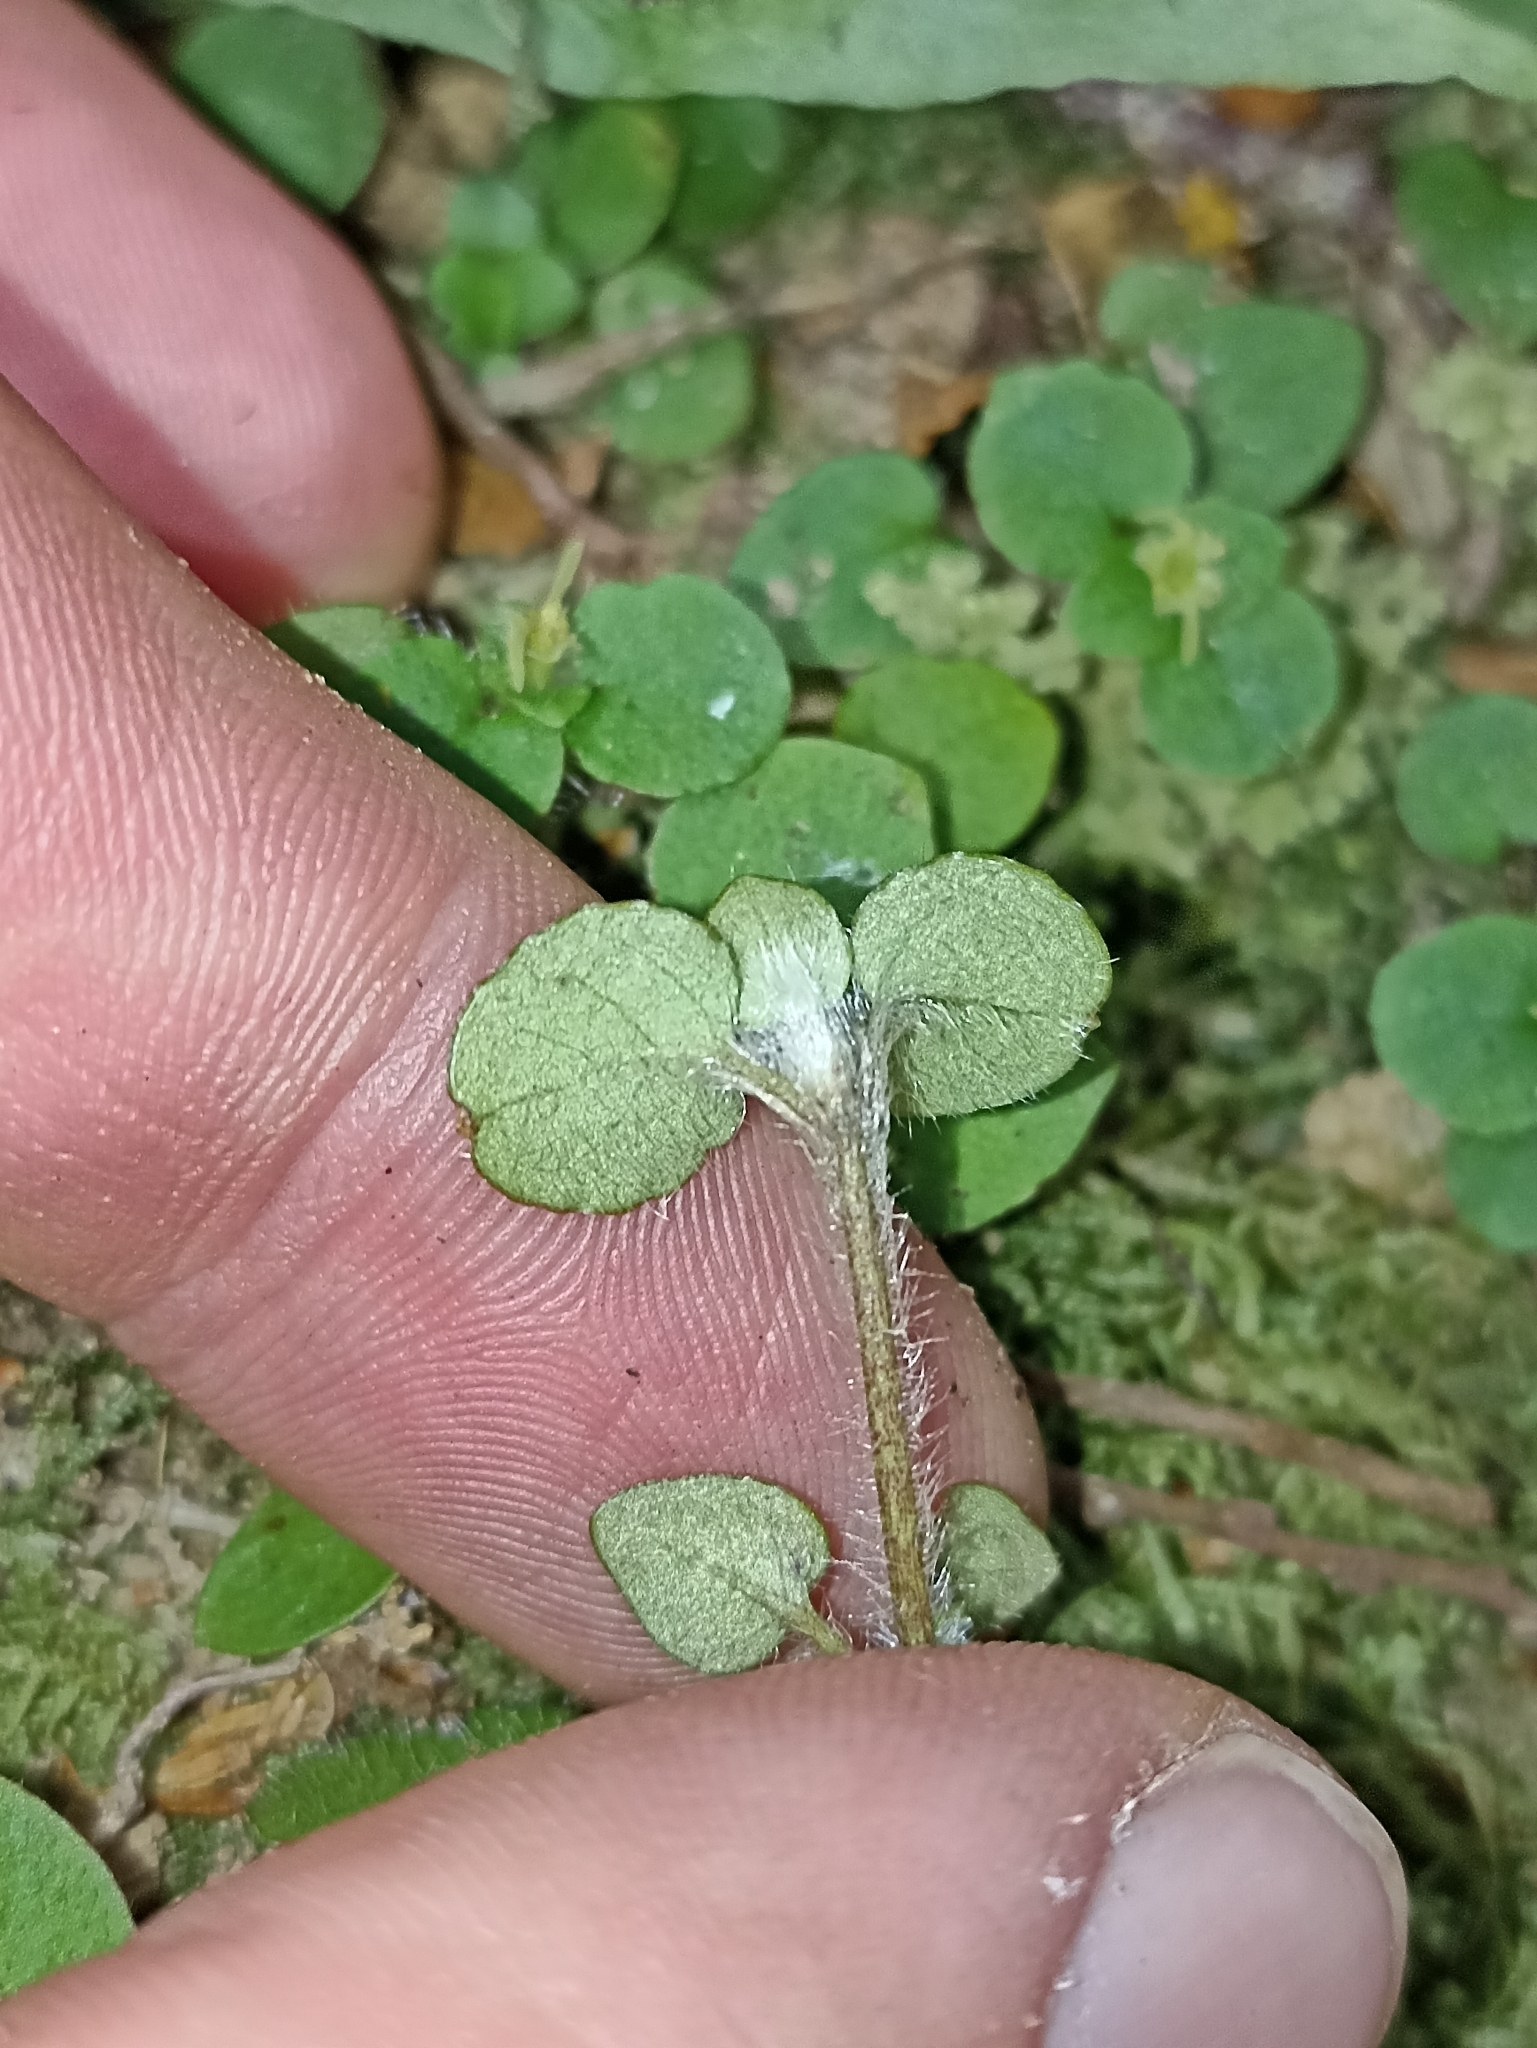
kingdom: Plantae
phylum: Tracheophyta
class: Magnoliopsida
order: Gentianales
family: Rubiaceae
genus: Nertera
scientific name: Nertera villosa
